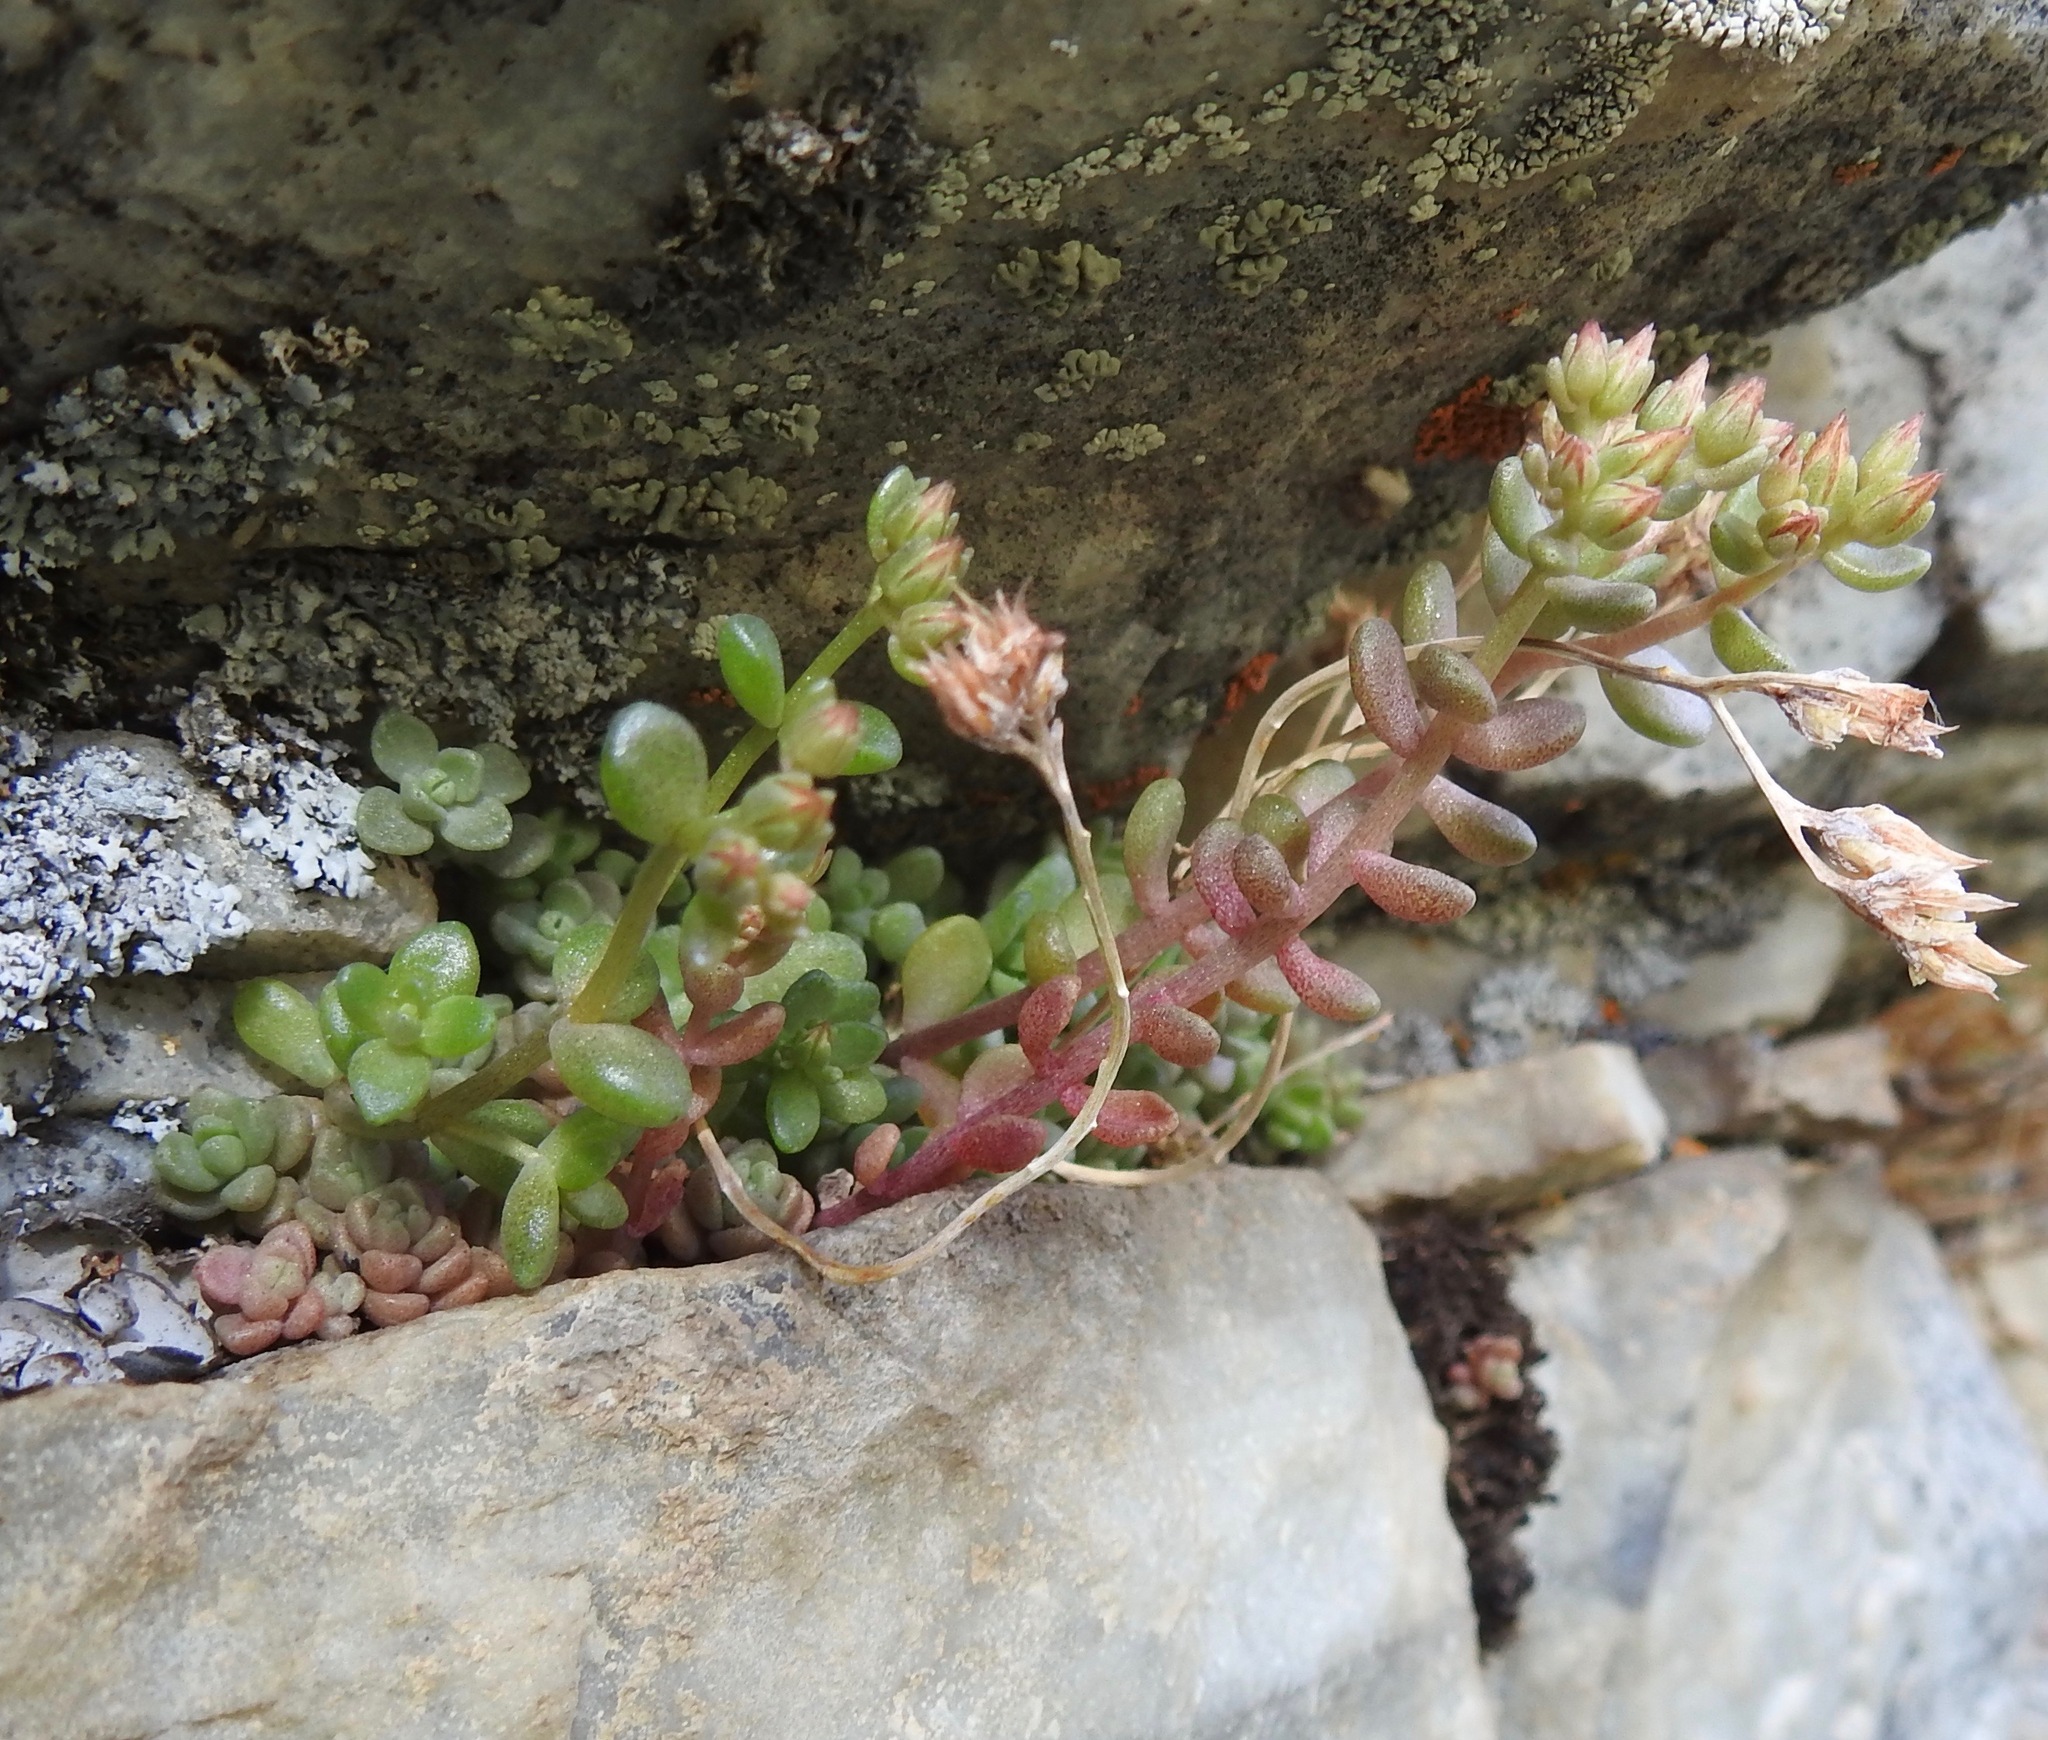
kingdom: Plantae
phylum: Tracheophyta
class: Magnoliopsida
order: Saxifragales
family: Crassulaceae
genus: Sedum
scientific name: Sedum debile
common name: Weak-stem stonecrop
